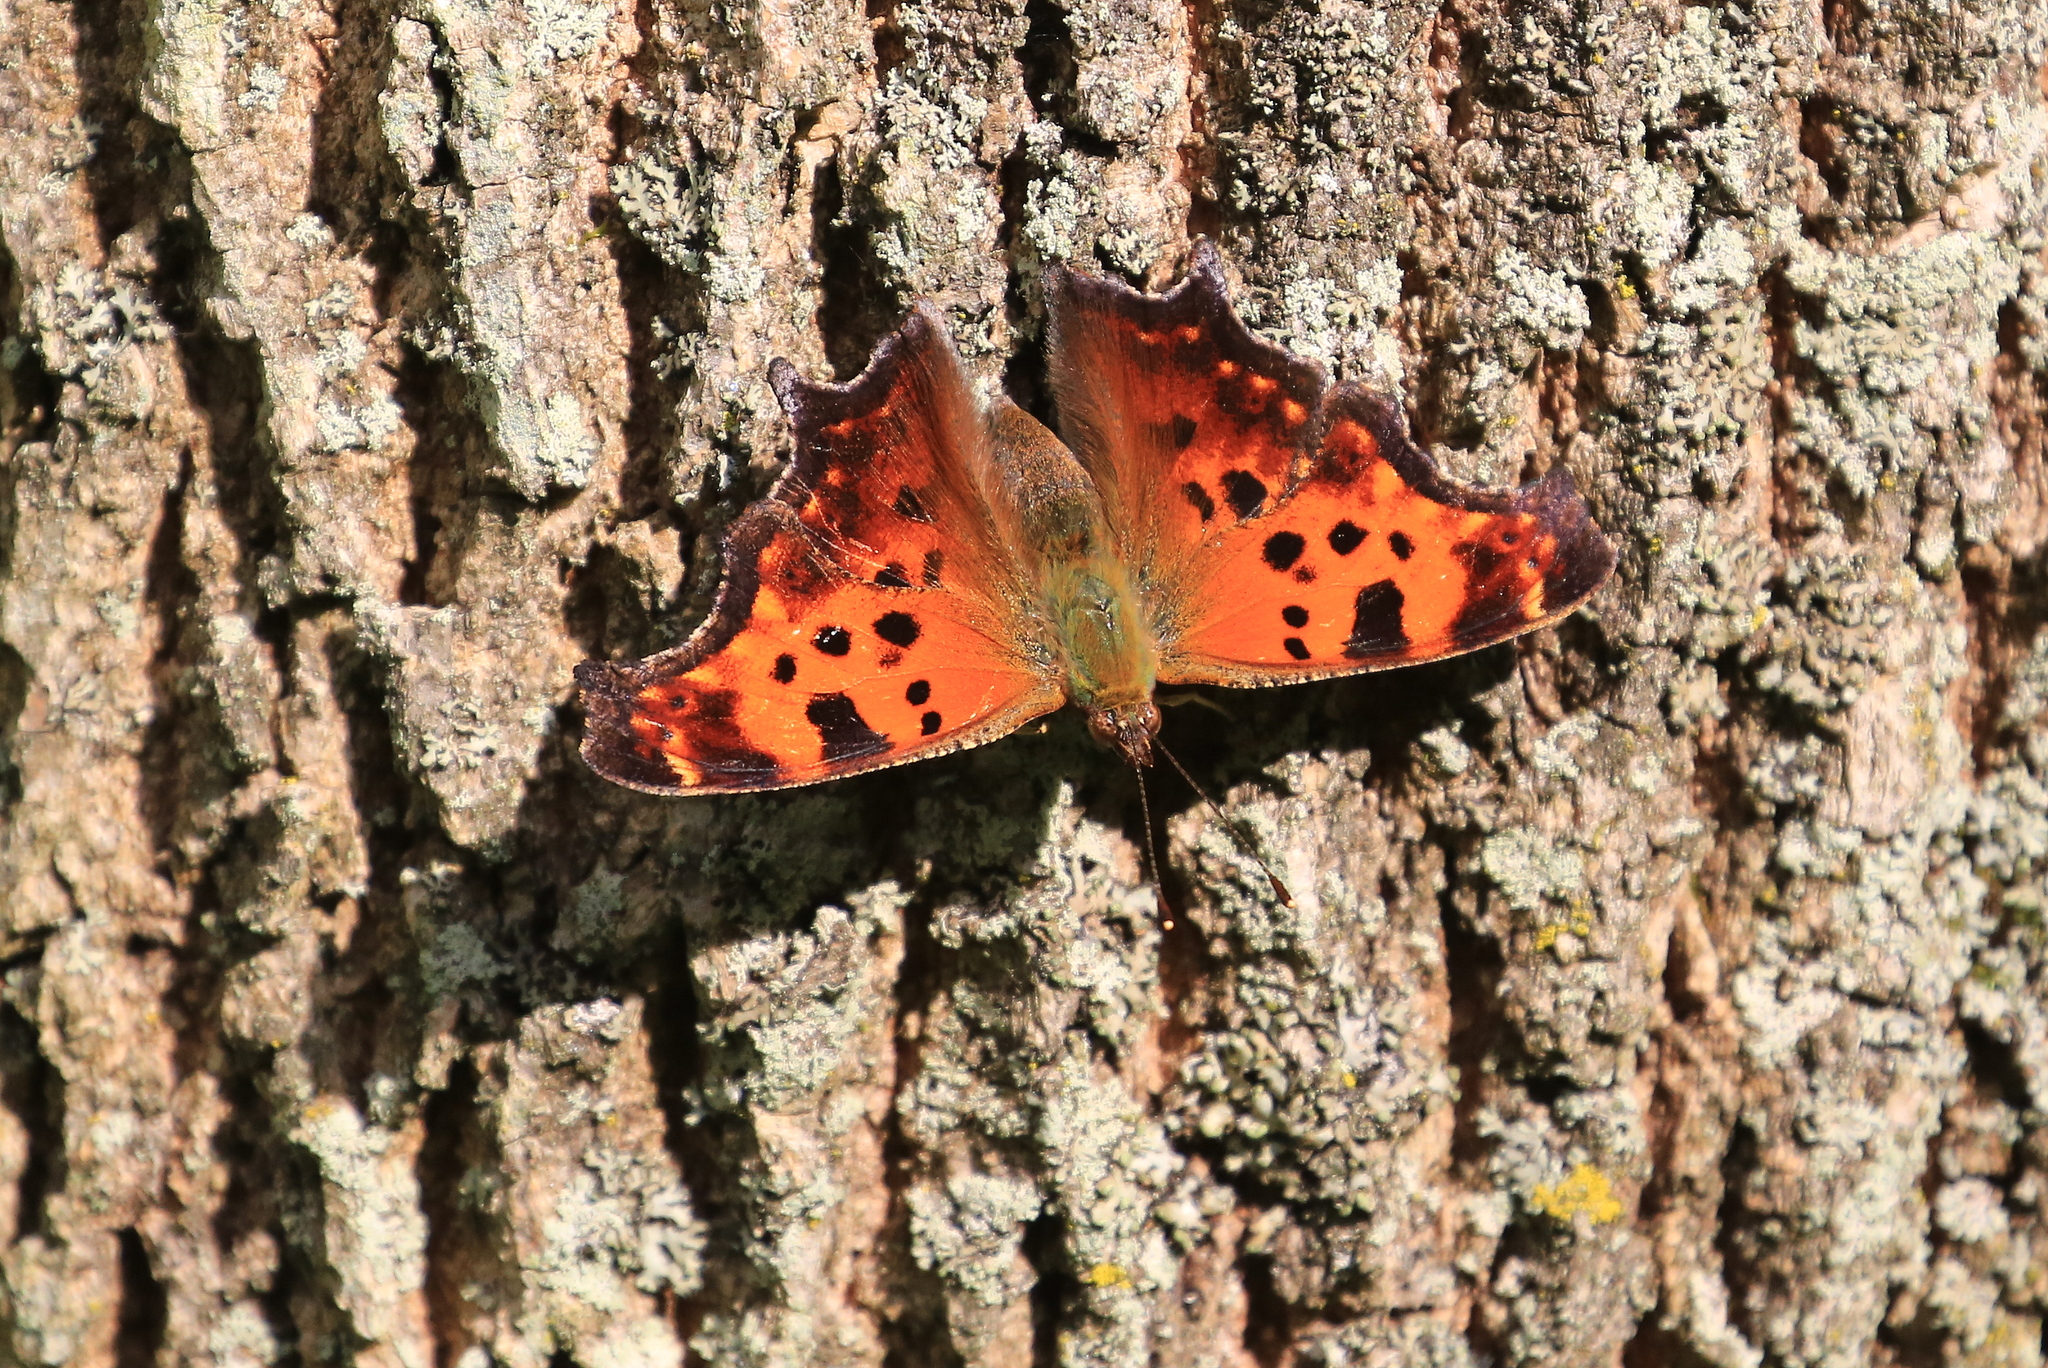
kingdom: Animalia
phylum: Arthropoda
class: Insecta
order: Lepidoptera
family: Nymphalidae
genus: Polygonia
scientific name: Polygonia comma
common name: Eastern comma
